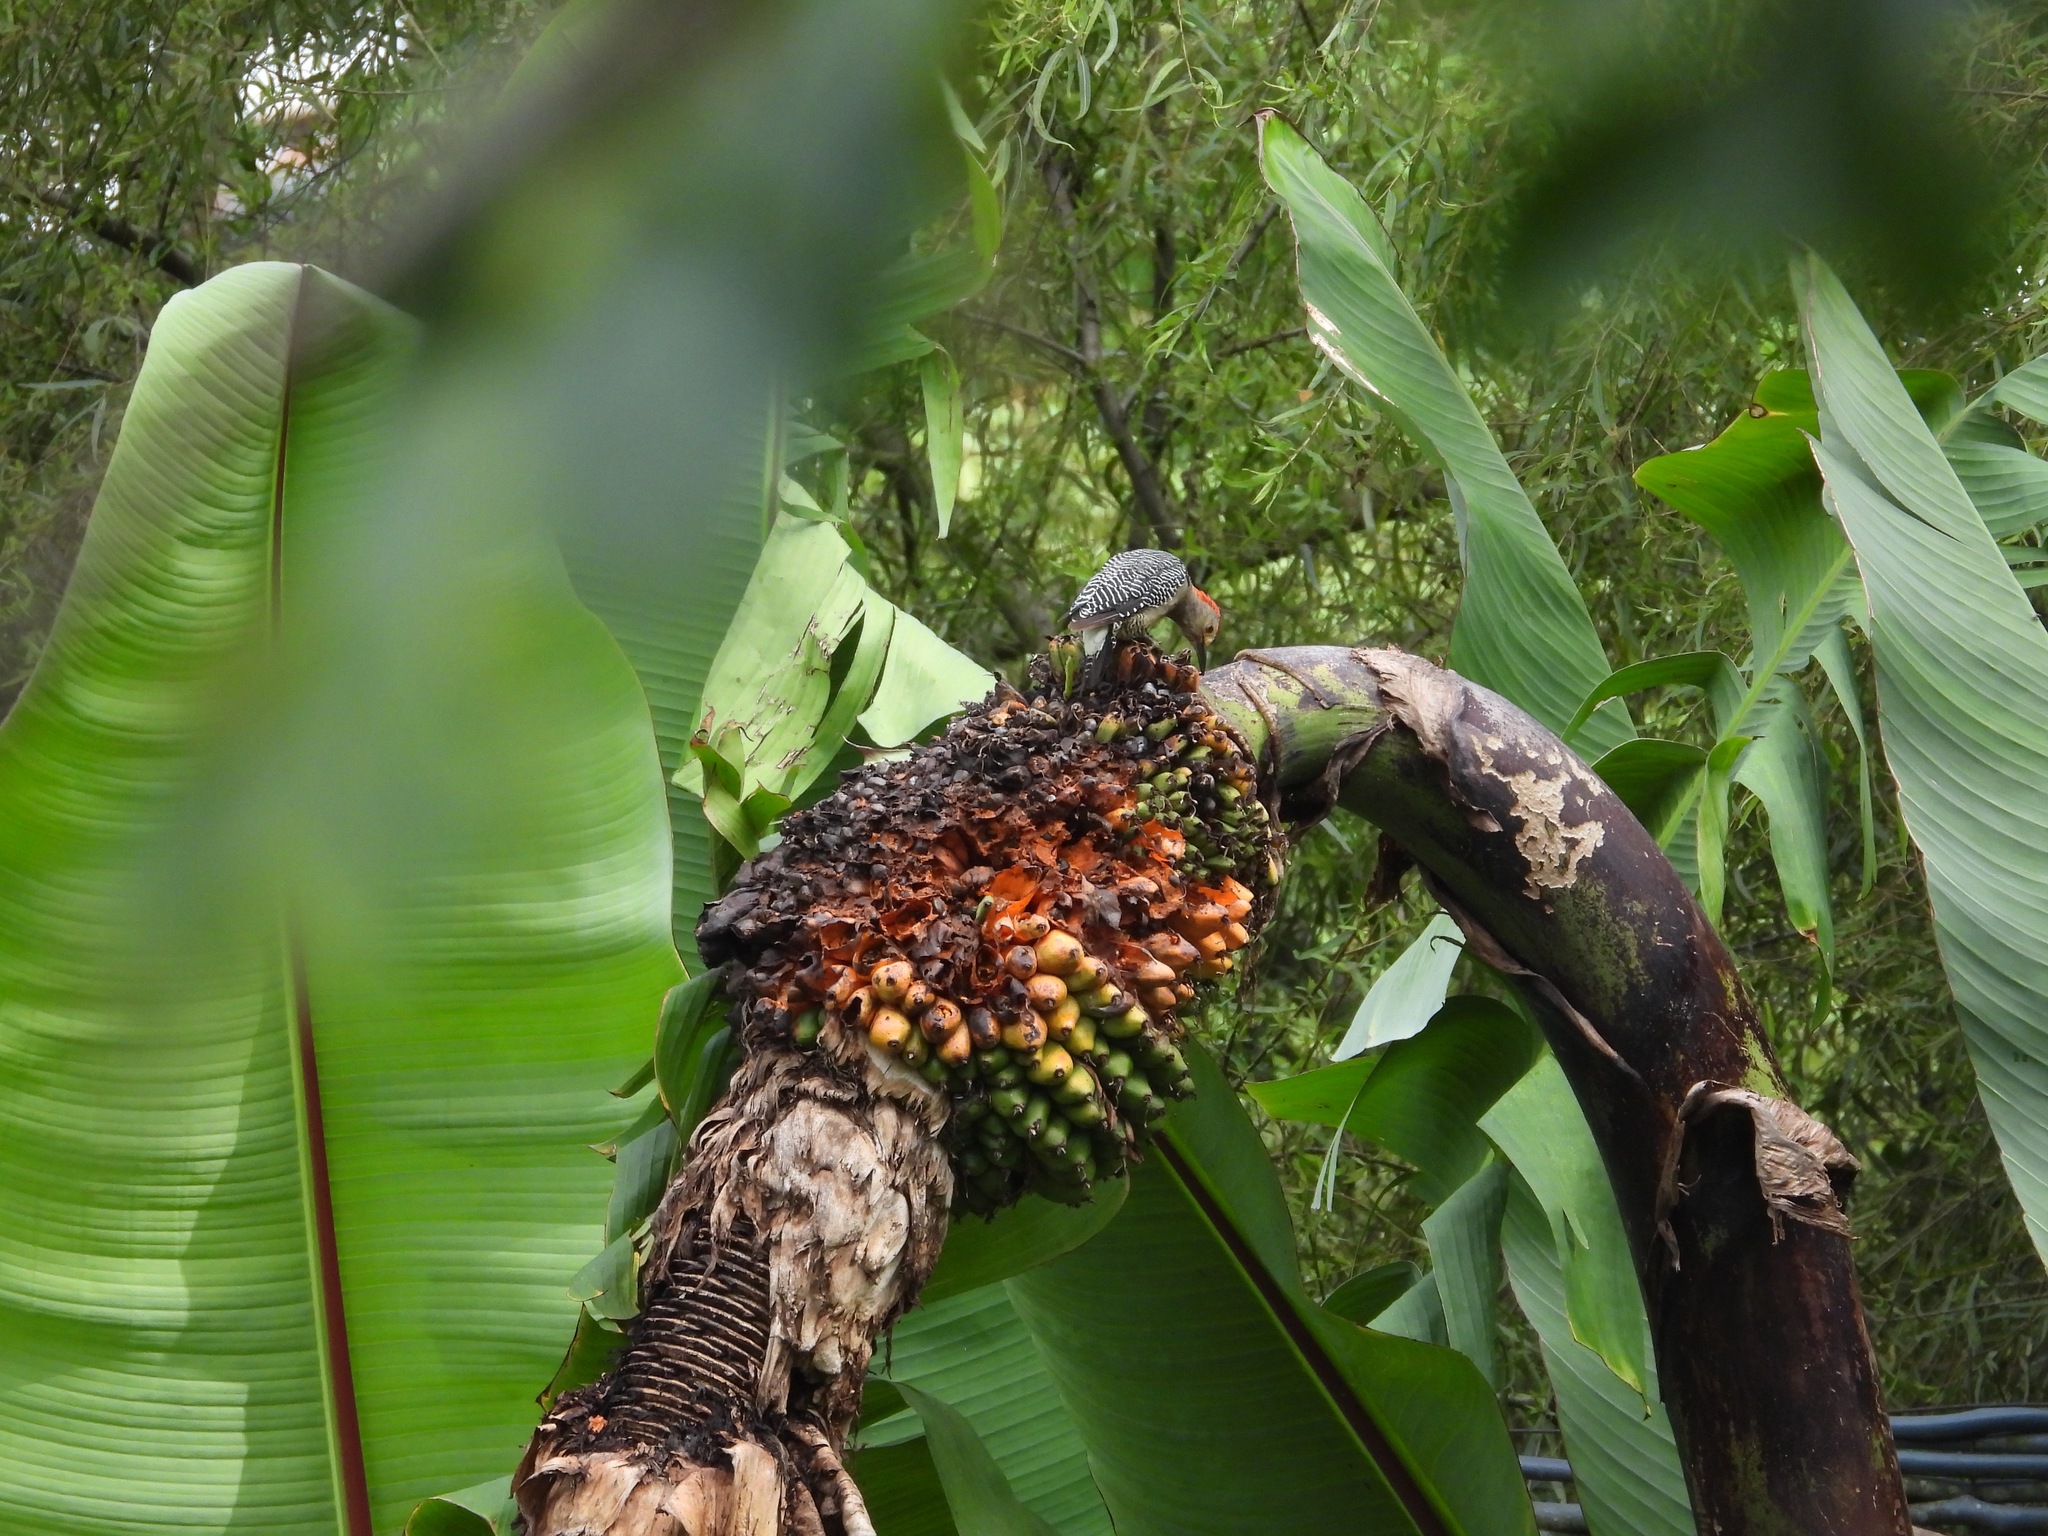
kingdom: Plantae
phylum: Tracheophyta
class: Liliopsida
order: Zingiberales
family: Musaceae
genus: Ensete
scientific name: Ensete ventricosum
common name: Abyssinian banana
